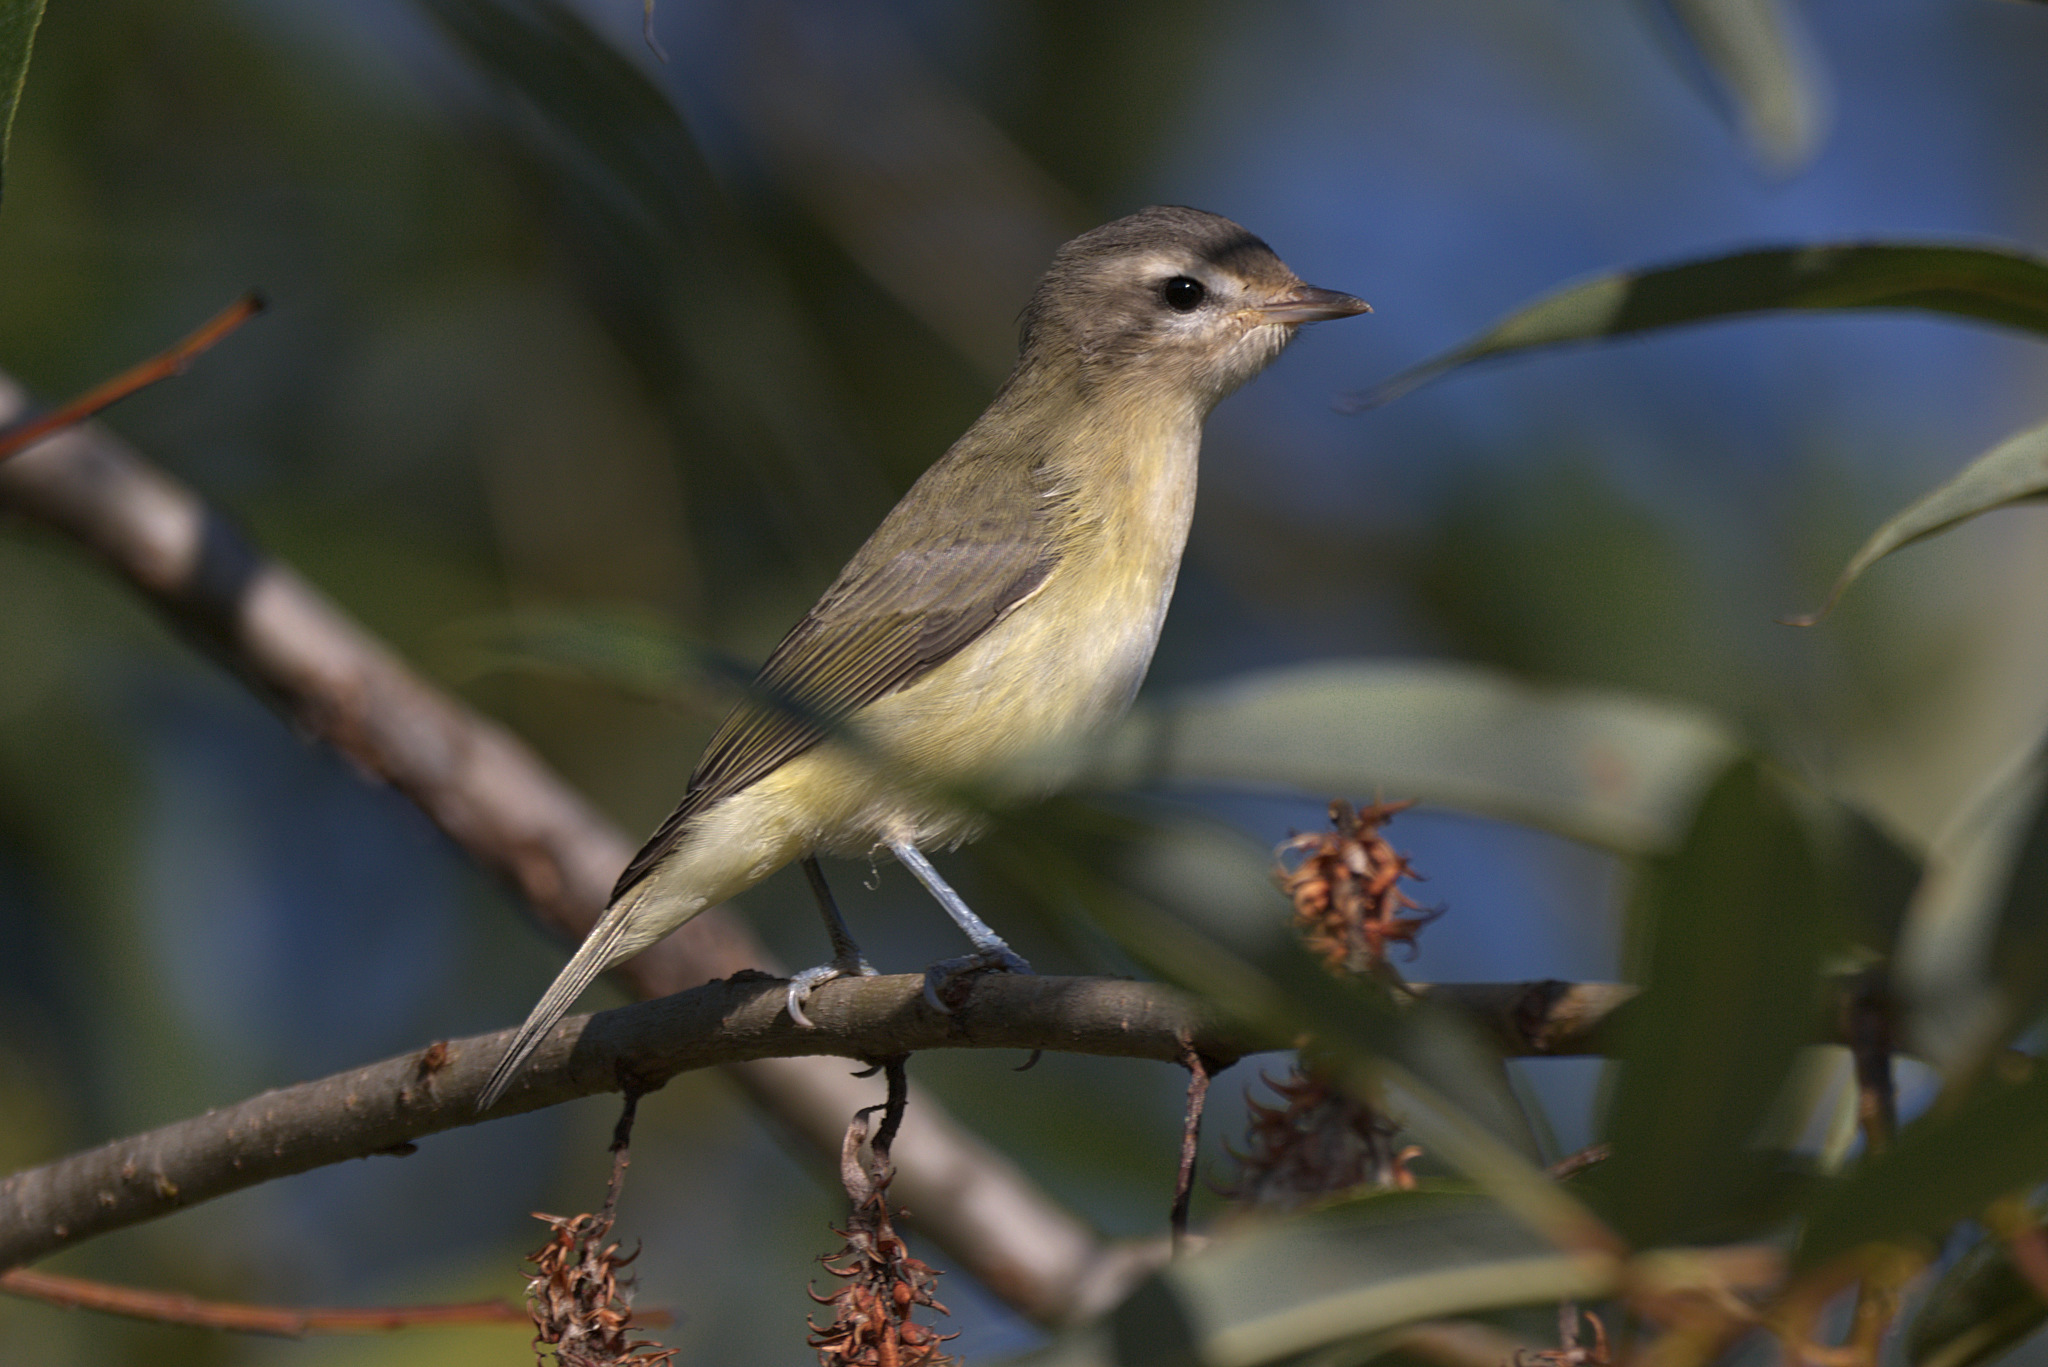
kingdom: Animalia
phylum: Chordata
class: Aves
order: Passeriformes
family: Vireonidae
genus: Vireo
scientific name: Vireo gilvus
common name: Warbling vireo
